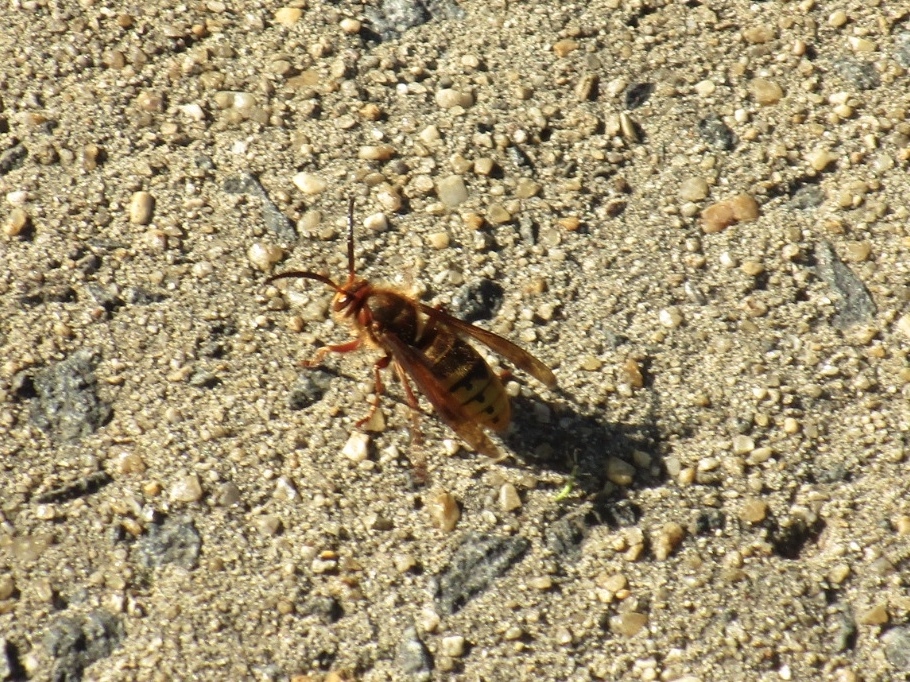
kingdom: Animalia
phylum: Arthropoda
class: Insecta
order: Hymenoptera
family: Vespidae
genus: Vespa
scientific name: Vespa crabro
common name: Hornet
